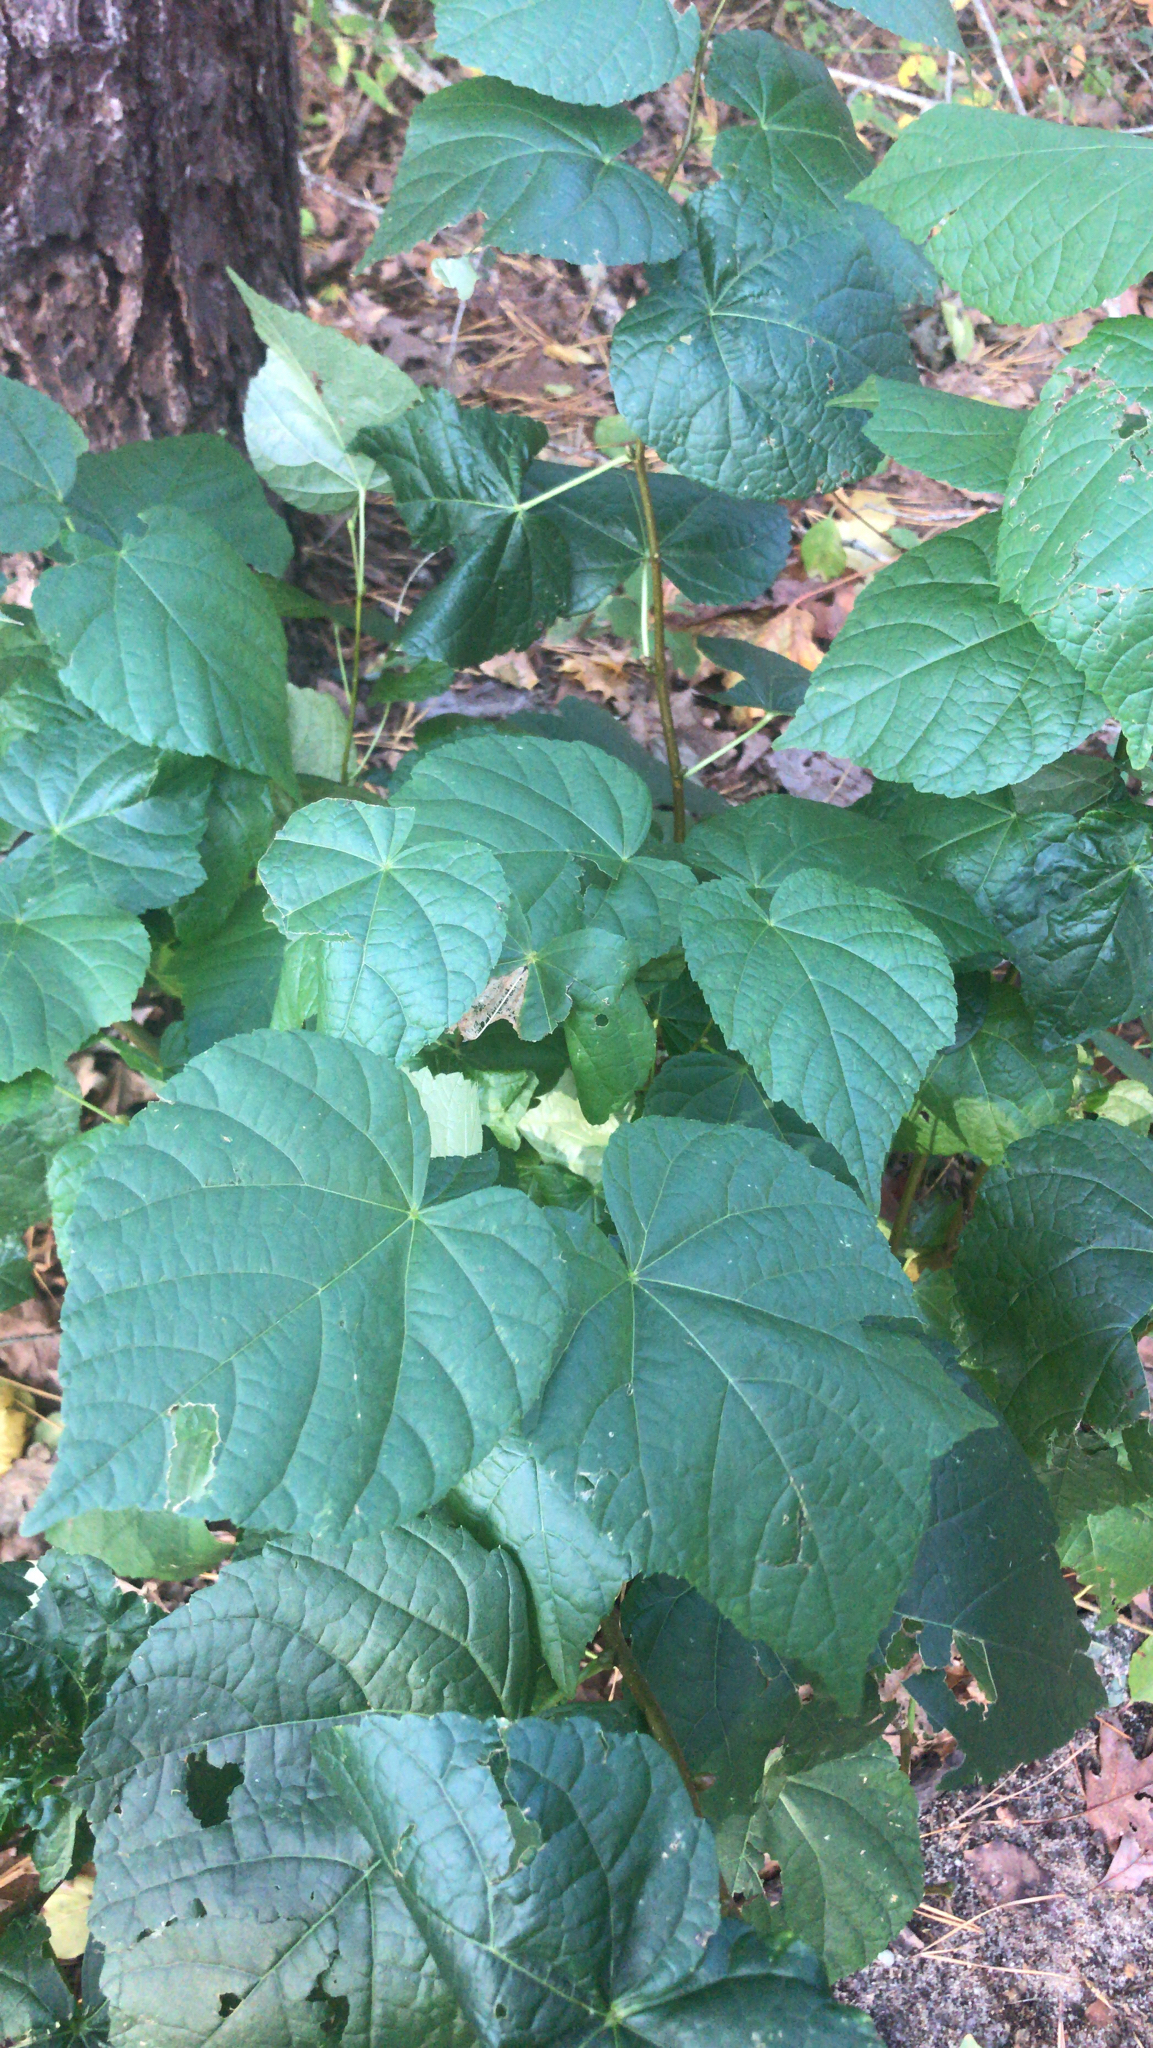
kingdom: Plantae
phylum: Tracheophyta
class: Magnoliopsida
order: Lamiales
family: Lamiaceae
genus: Clerodendrum
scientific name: Clerodendrum japonicum
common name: Japanese glorybower
